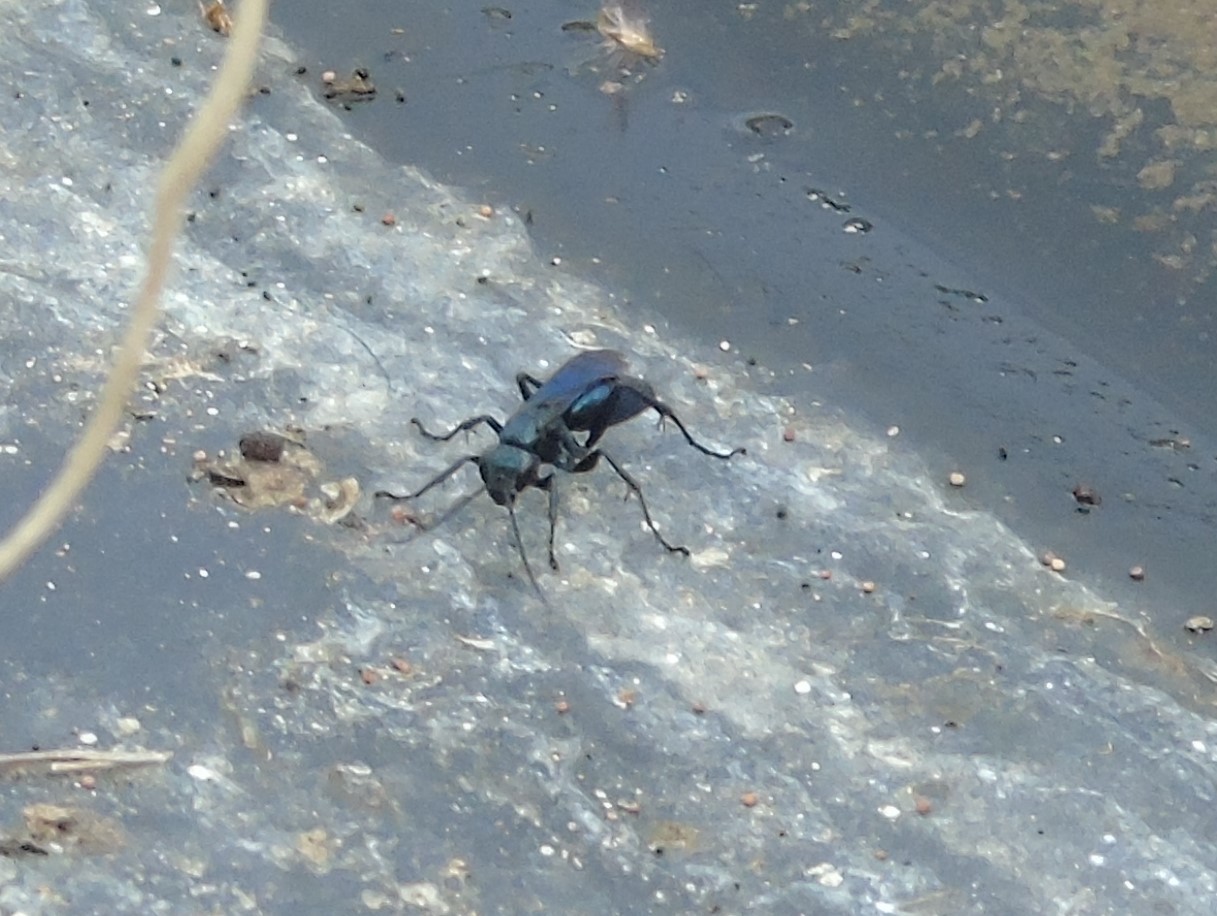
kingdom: Animalia
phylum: Arthropoda
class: Insecta
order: Hymenoptera
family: Pompilidae
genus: Anoplius
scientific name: Anoplius
